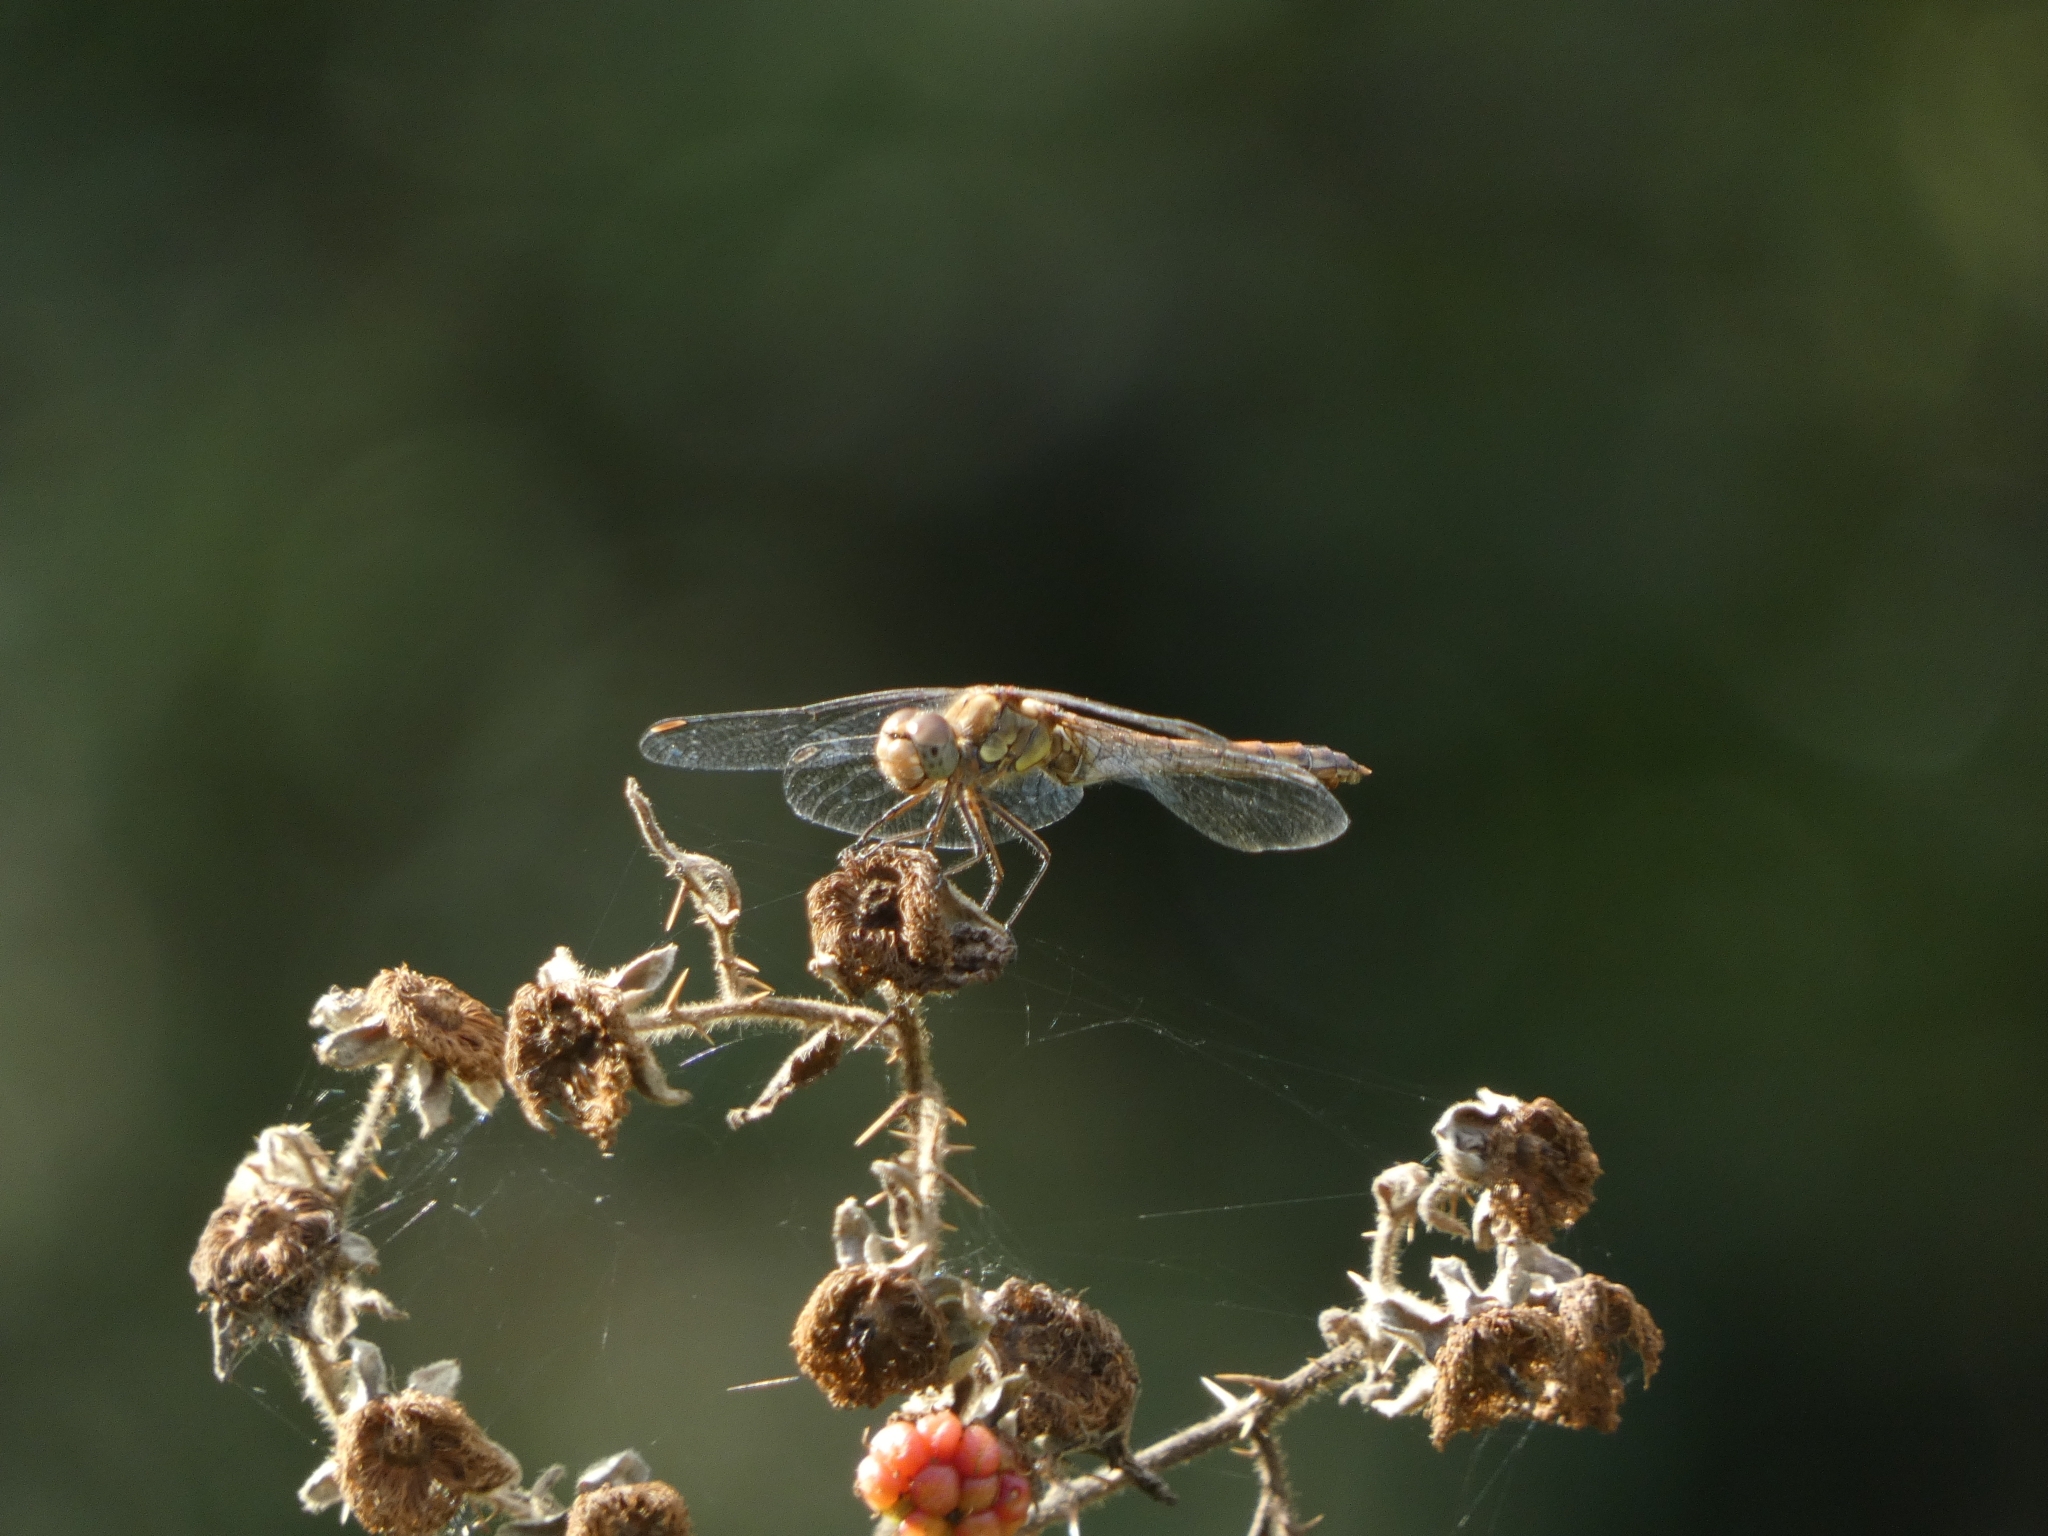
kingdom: Animalia
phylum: Arthropoda
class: Insecta
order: Odonata
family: Libellulidae
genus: Sympetrum
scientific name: Sympetrum striolatum
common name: Common darter
